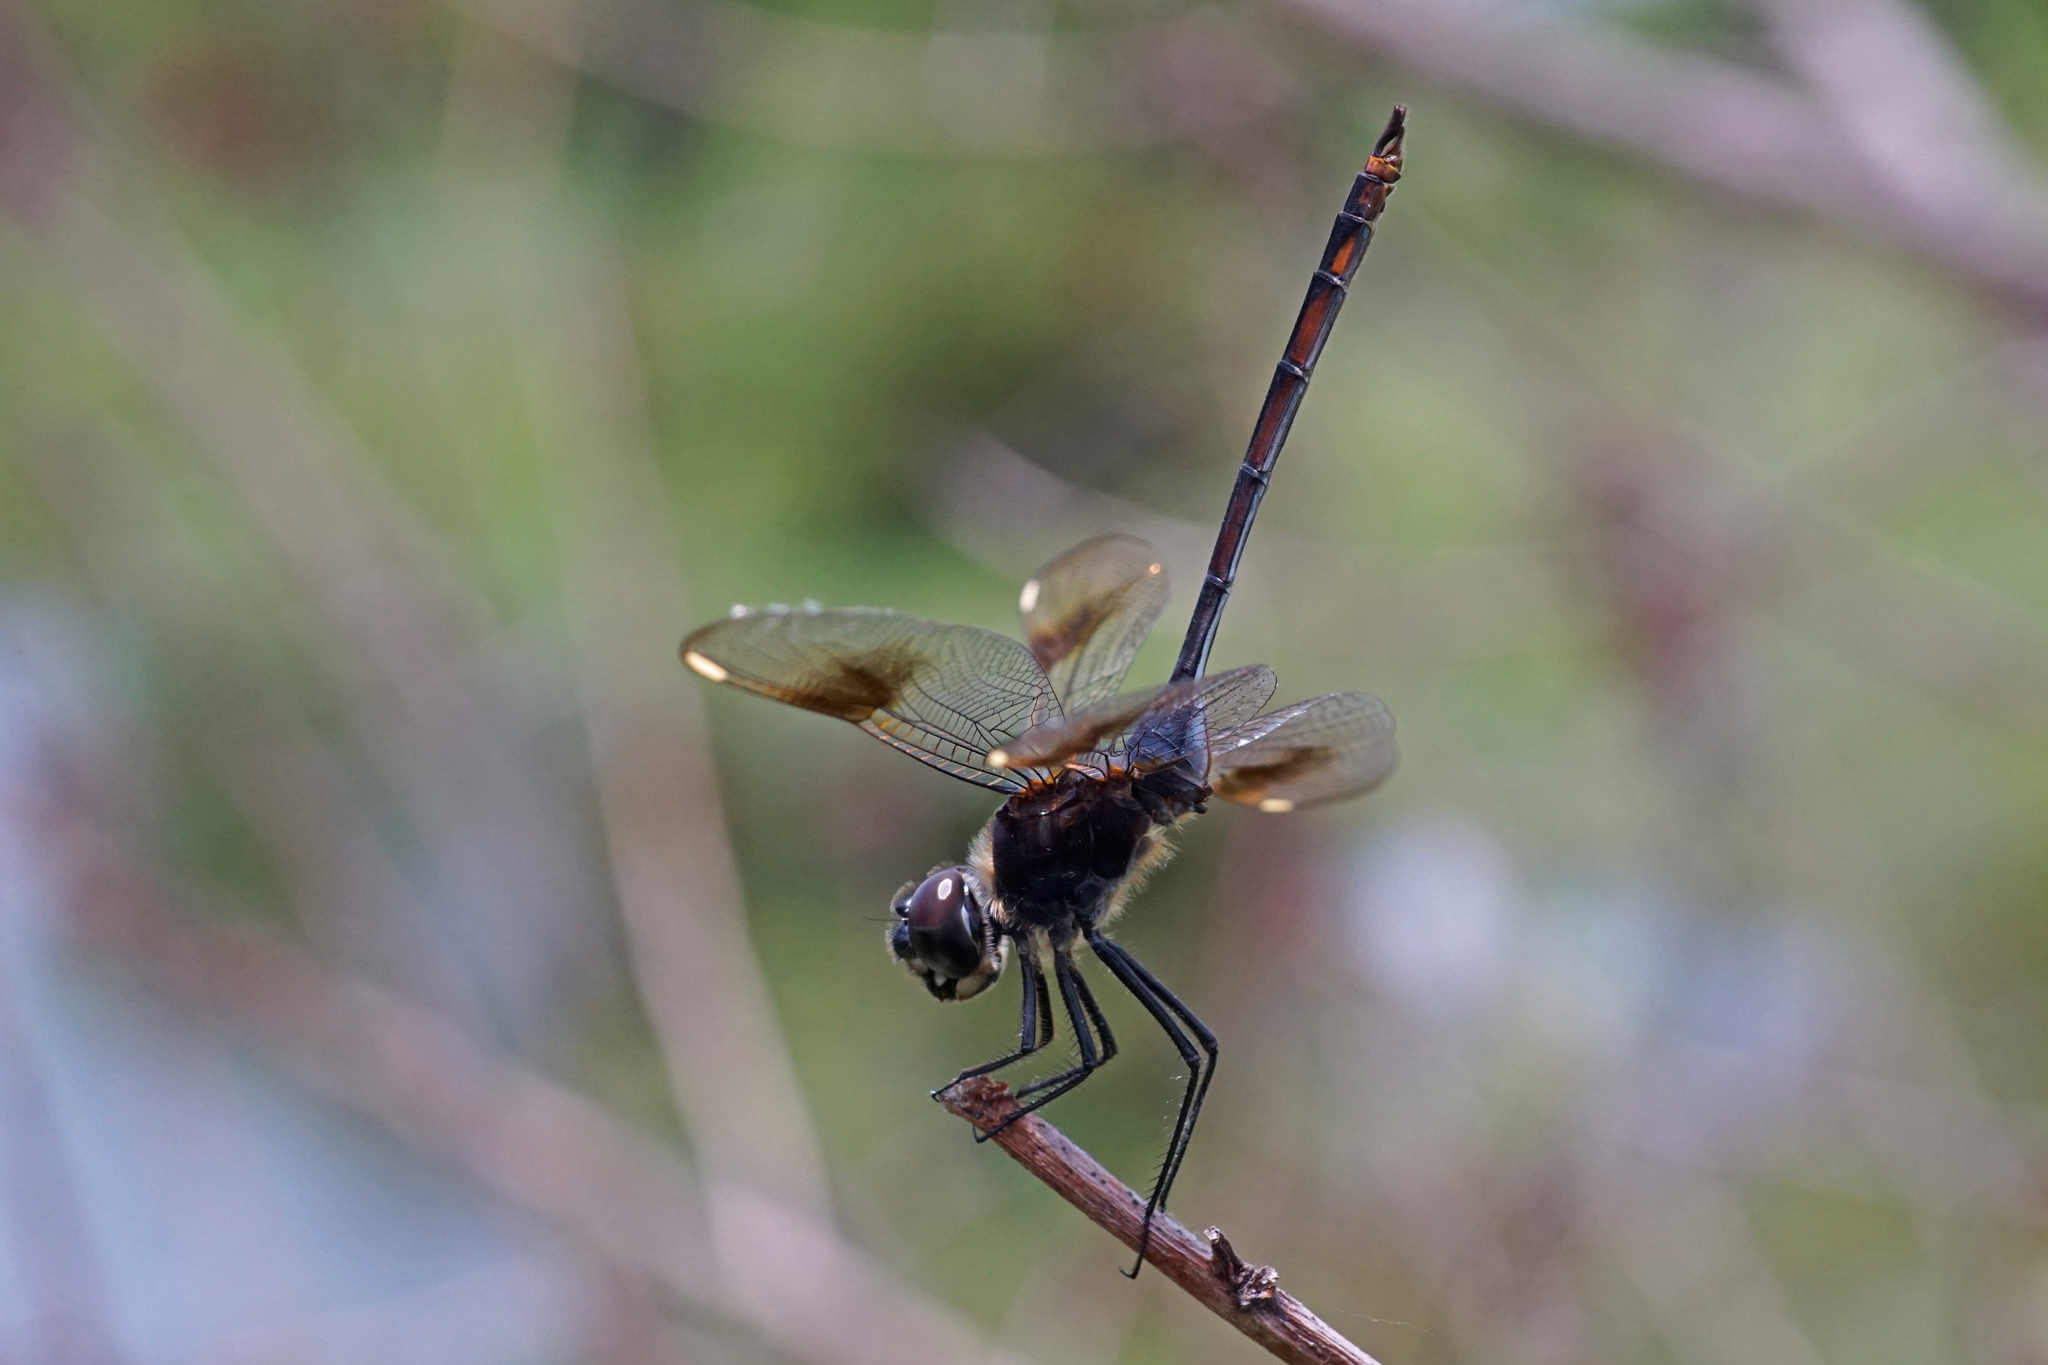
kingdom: Animalia
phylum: Arthropoda
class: Insecta
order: Odonata
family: Libellulidae
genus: Brachymesia
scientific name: Brachymesia gravida
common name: Four-spotted pennant
